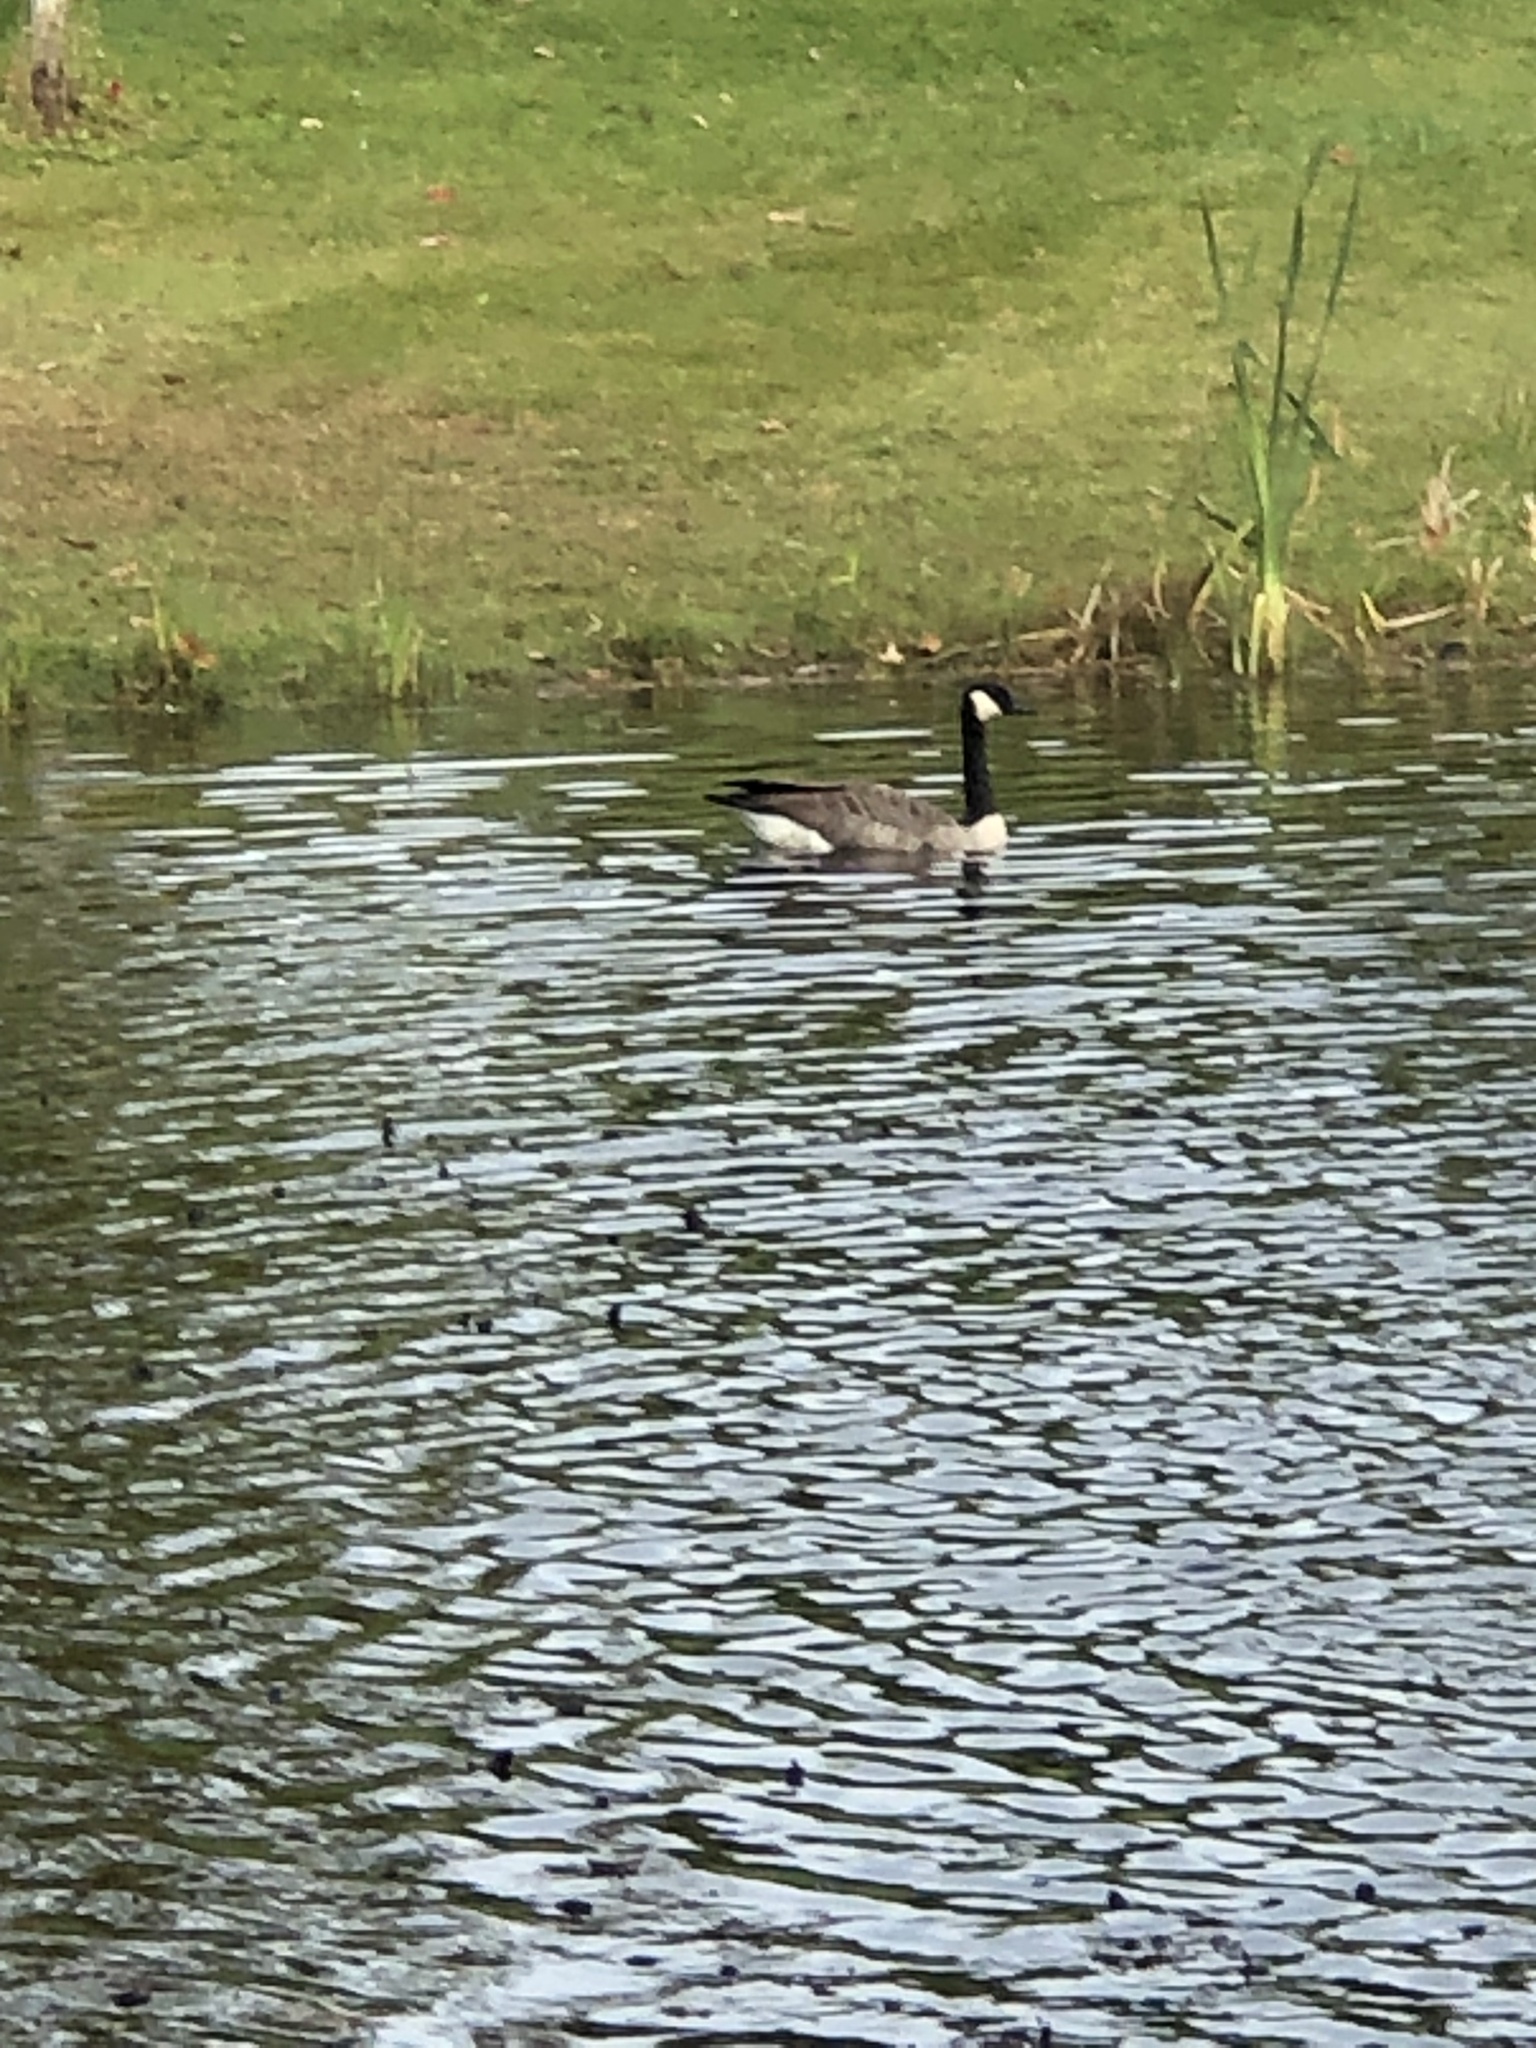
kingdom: Animalia
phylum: Chordata
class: Aves
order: Anseriformes
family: Anatidae
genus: Branta
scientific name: Branta canadensis
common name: Canada goose
